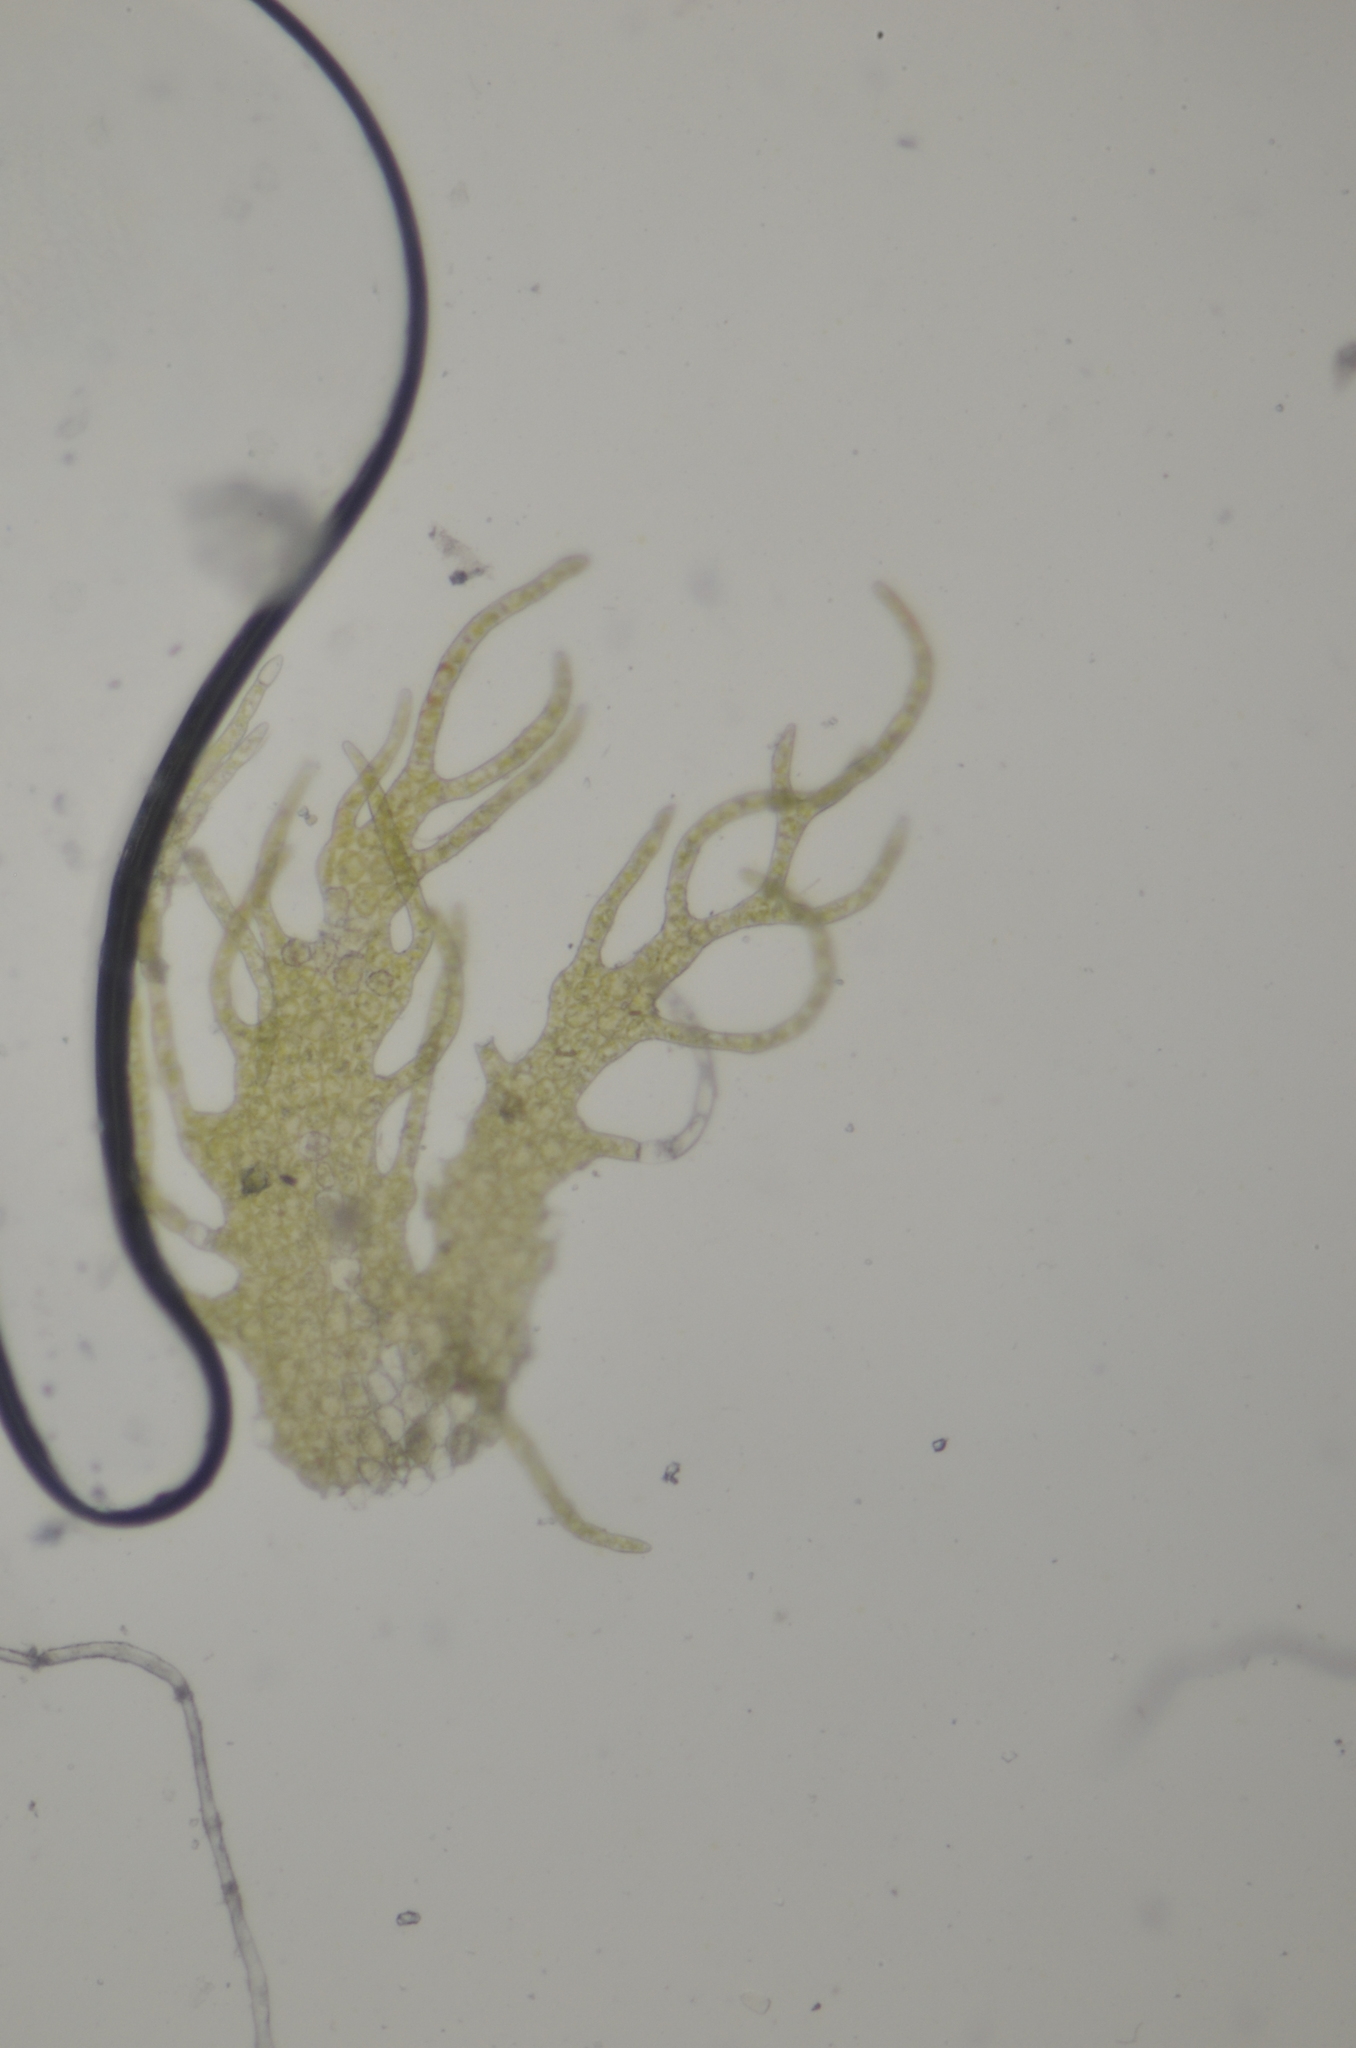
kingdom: Plantae
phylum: Marchantiophyta
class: Jungermanniopsida
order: Ptilidiales
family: Ptilidiaceae
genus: Ptilidium
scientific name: Ptilidium pulcherrimum
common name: Tree fringewort
